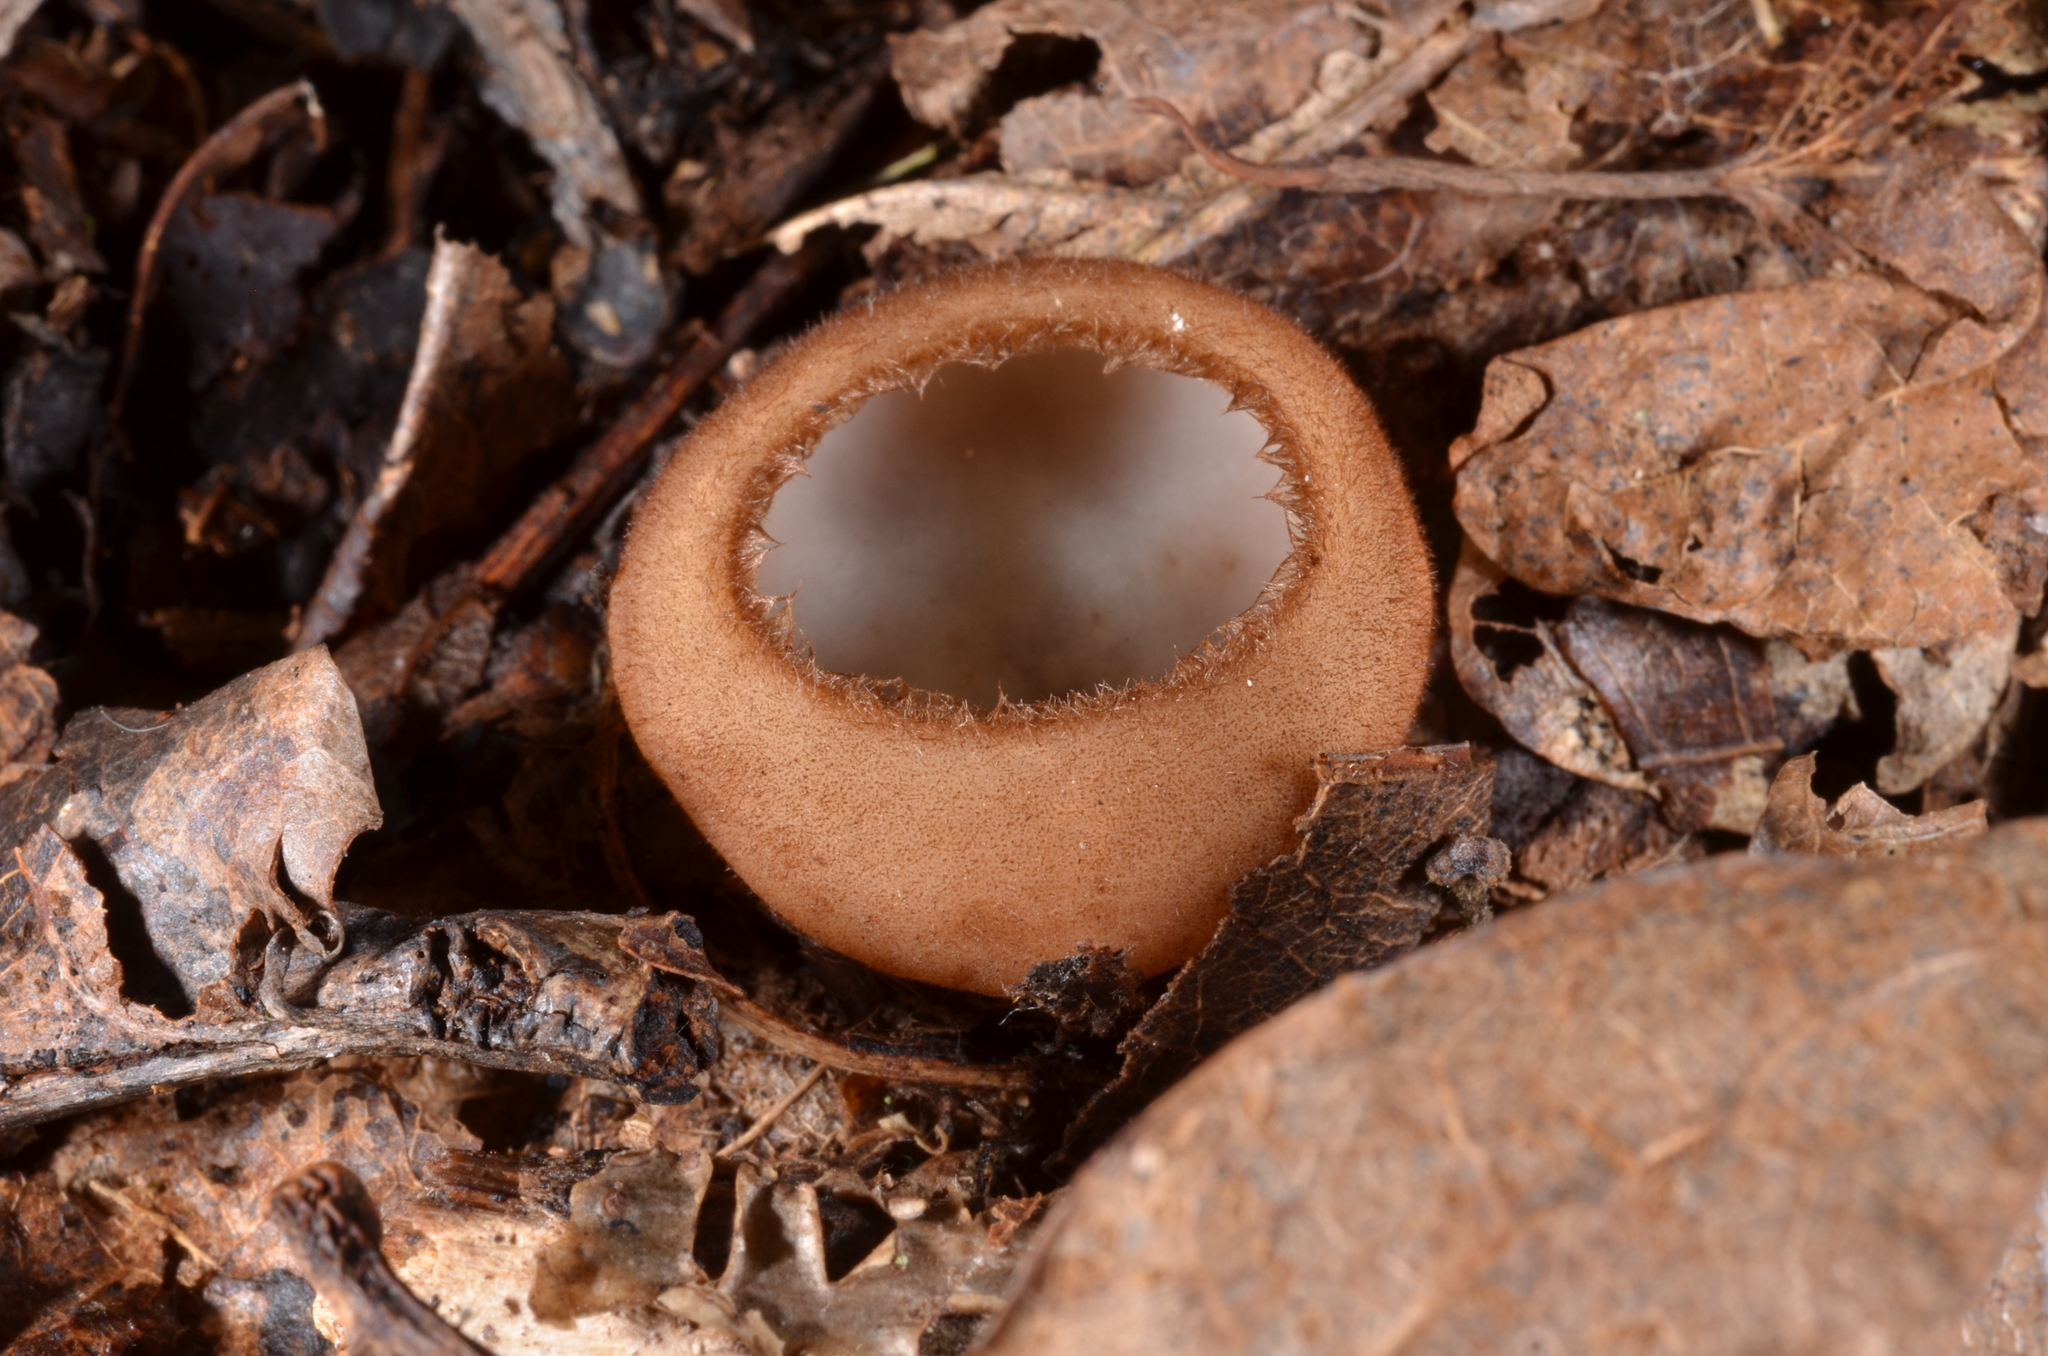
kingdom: Fungi
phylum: Ascomycota
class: Pezizomycetes
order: Pezizales
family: Pyronemataceae
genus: Humaria
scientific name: Humaria hemisphaerica
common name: Glazed cup
